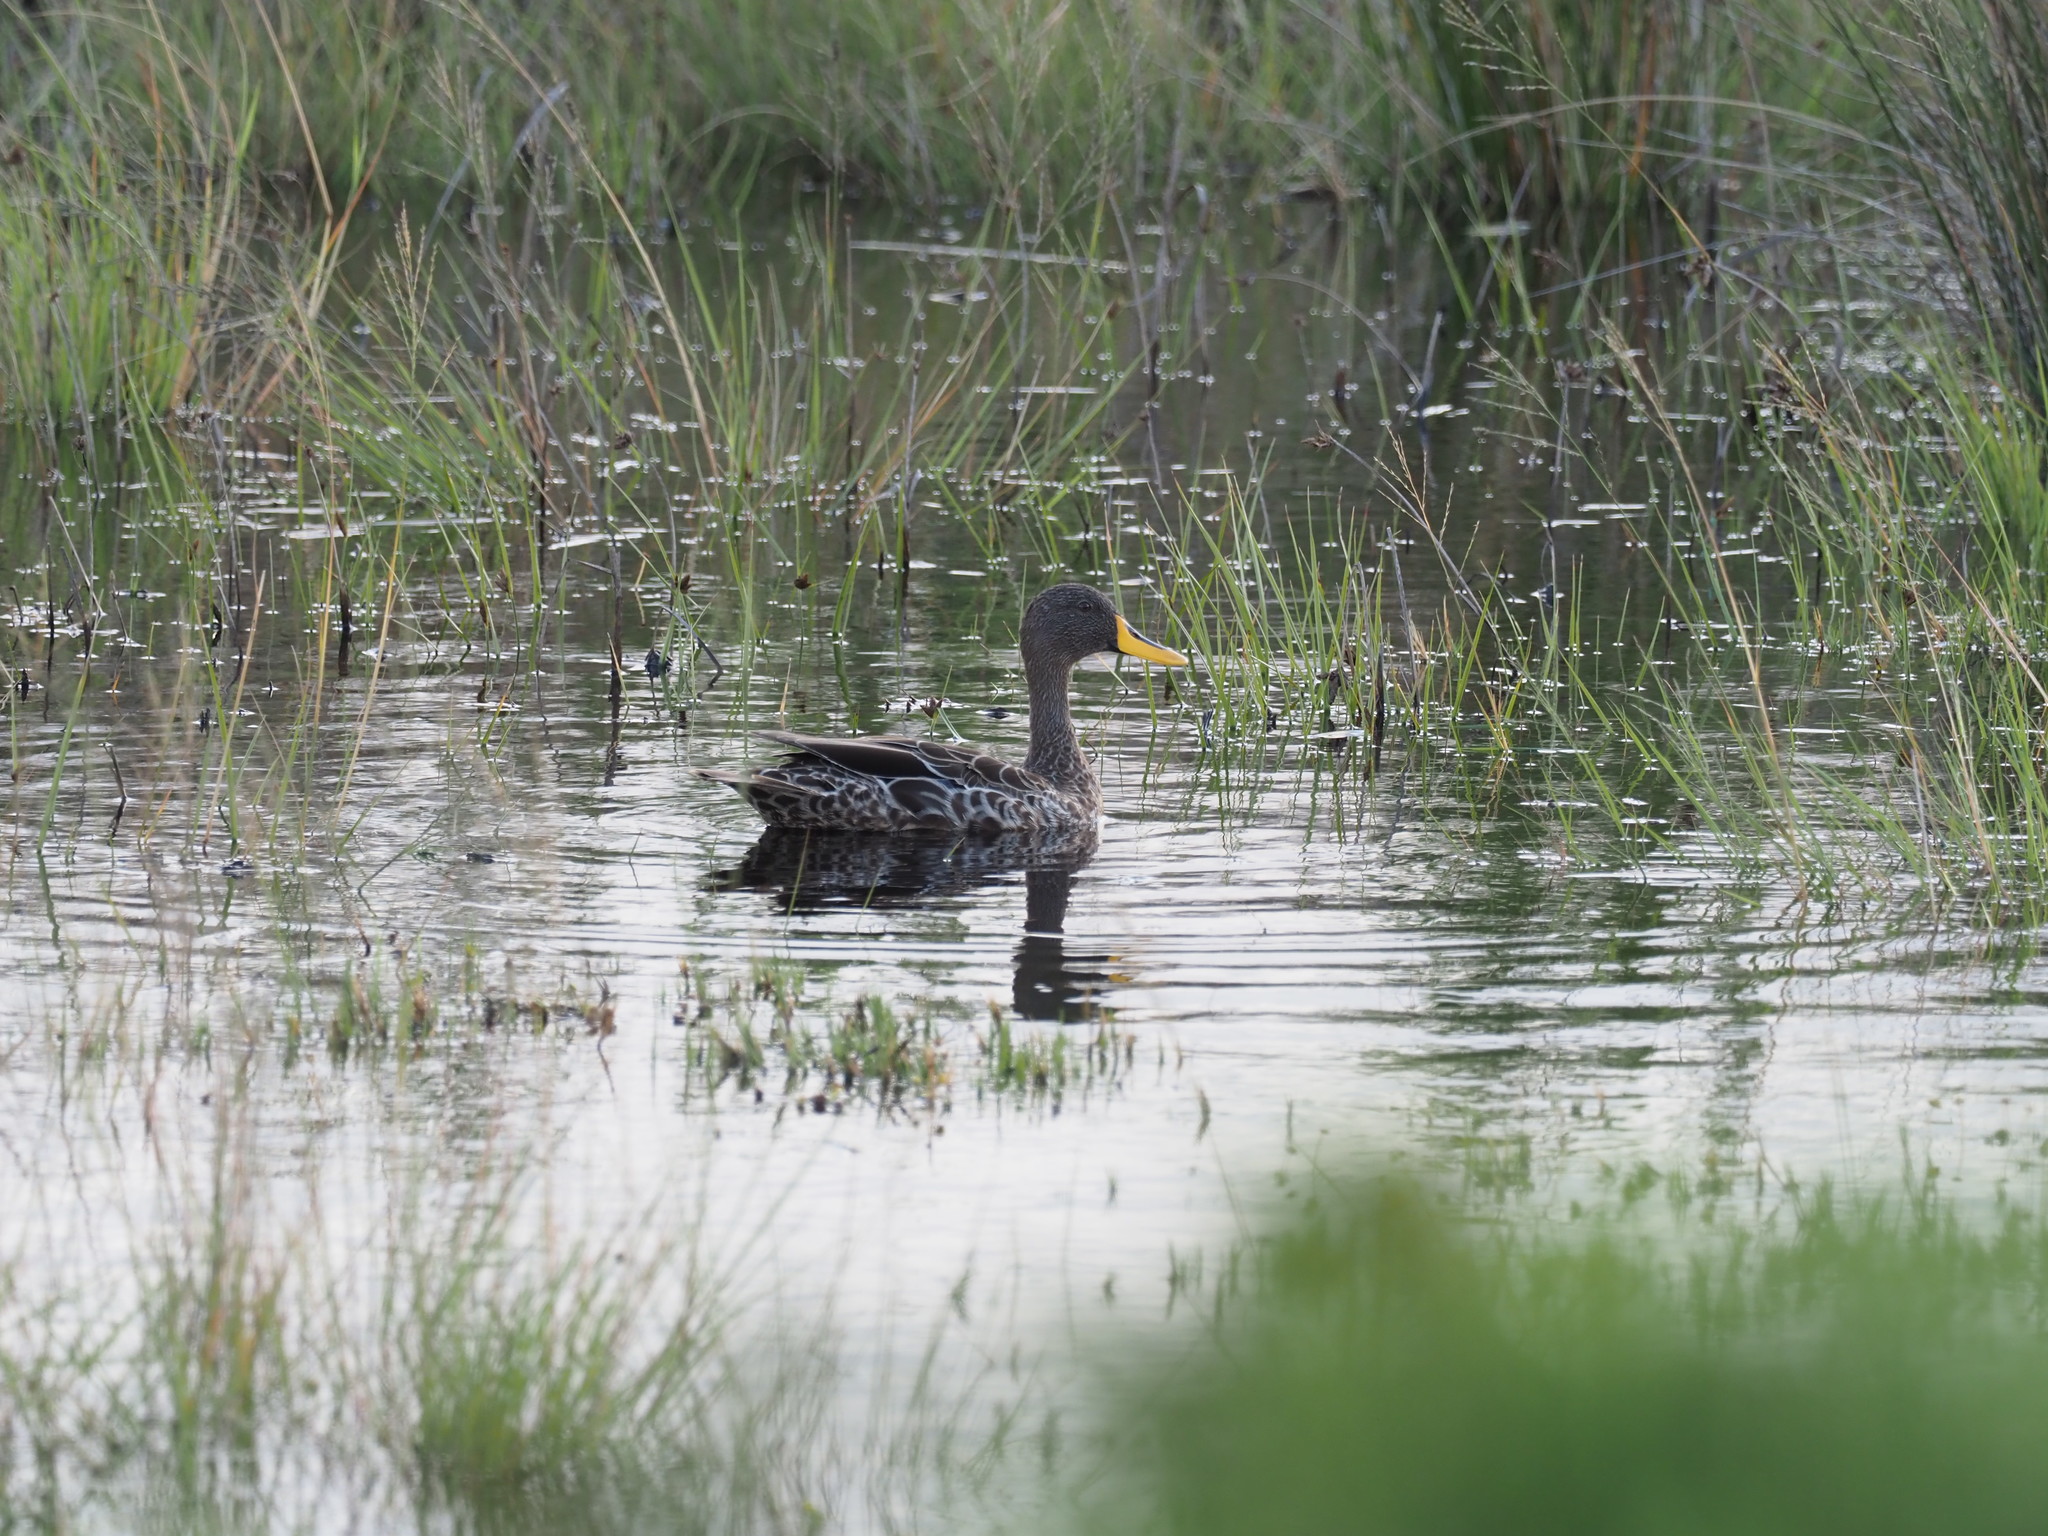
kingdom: Animalia
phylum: Chordata
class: Aves
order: Anseriformes
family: Anatidae
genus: Anas
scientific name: Anas undulata
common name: Yellow-billed duck
